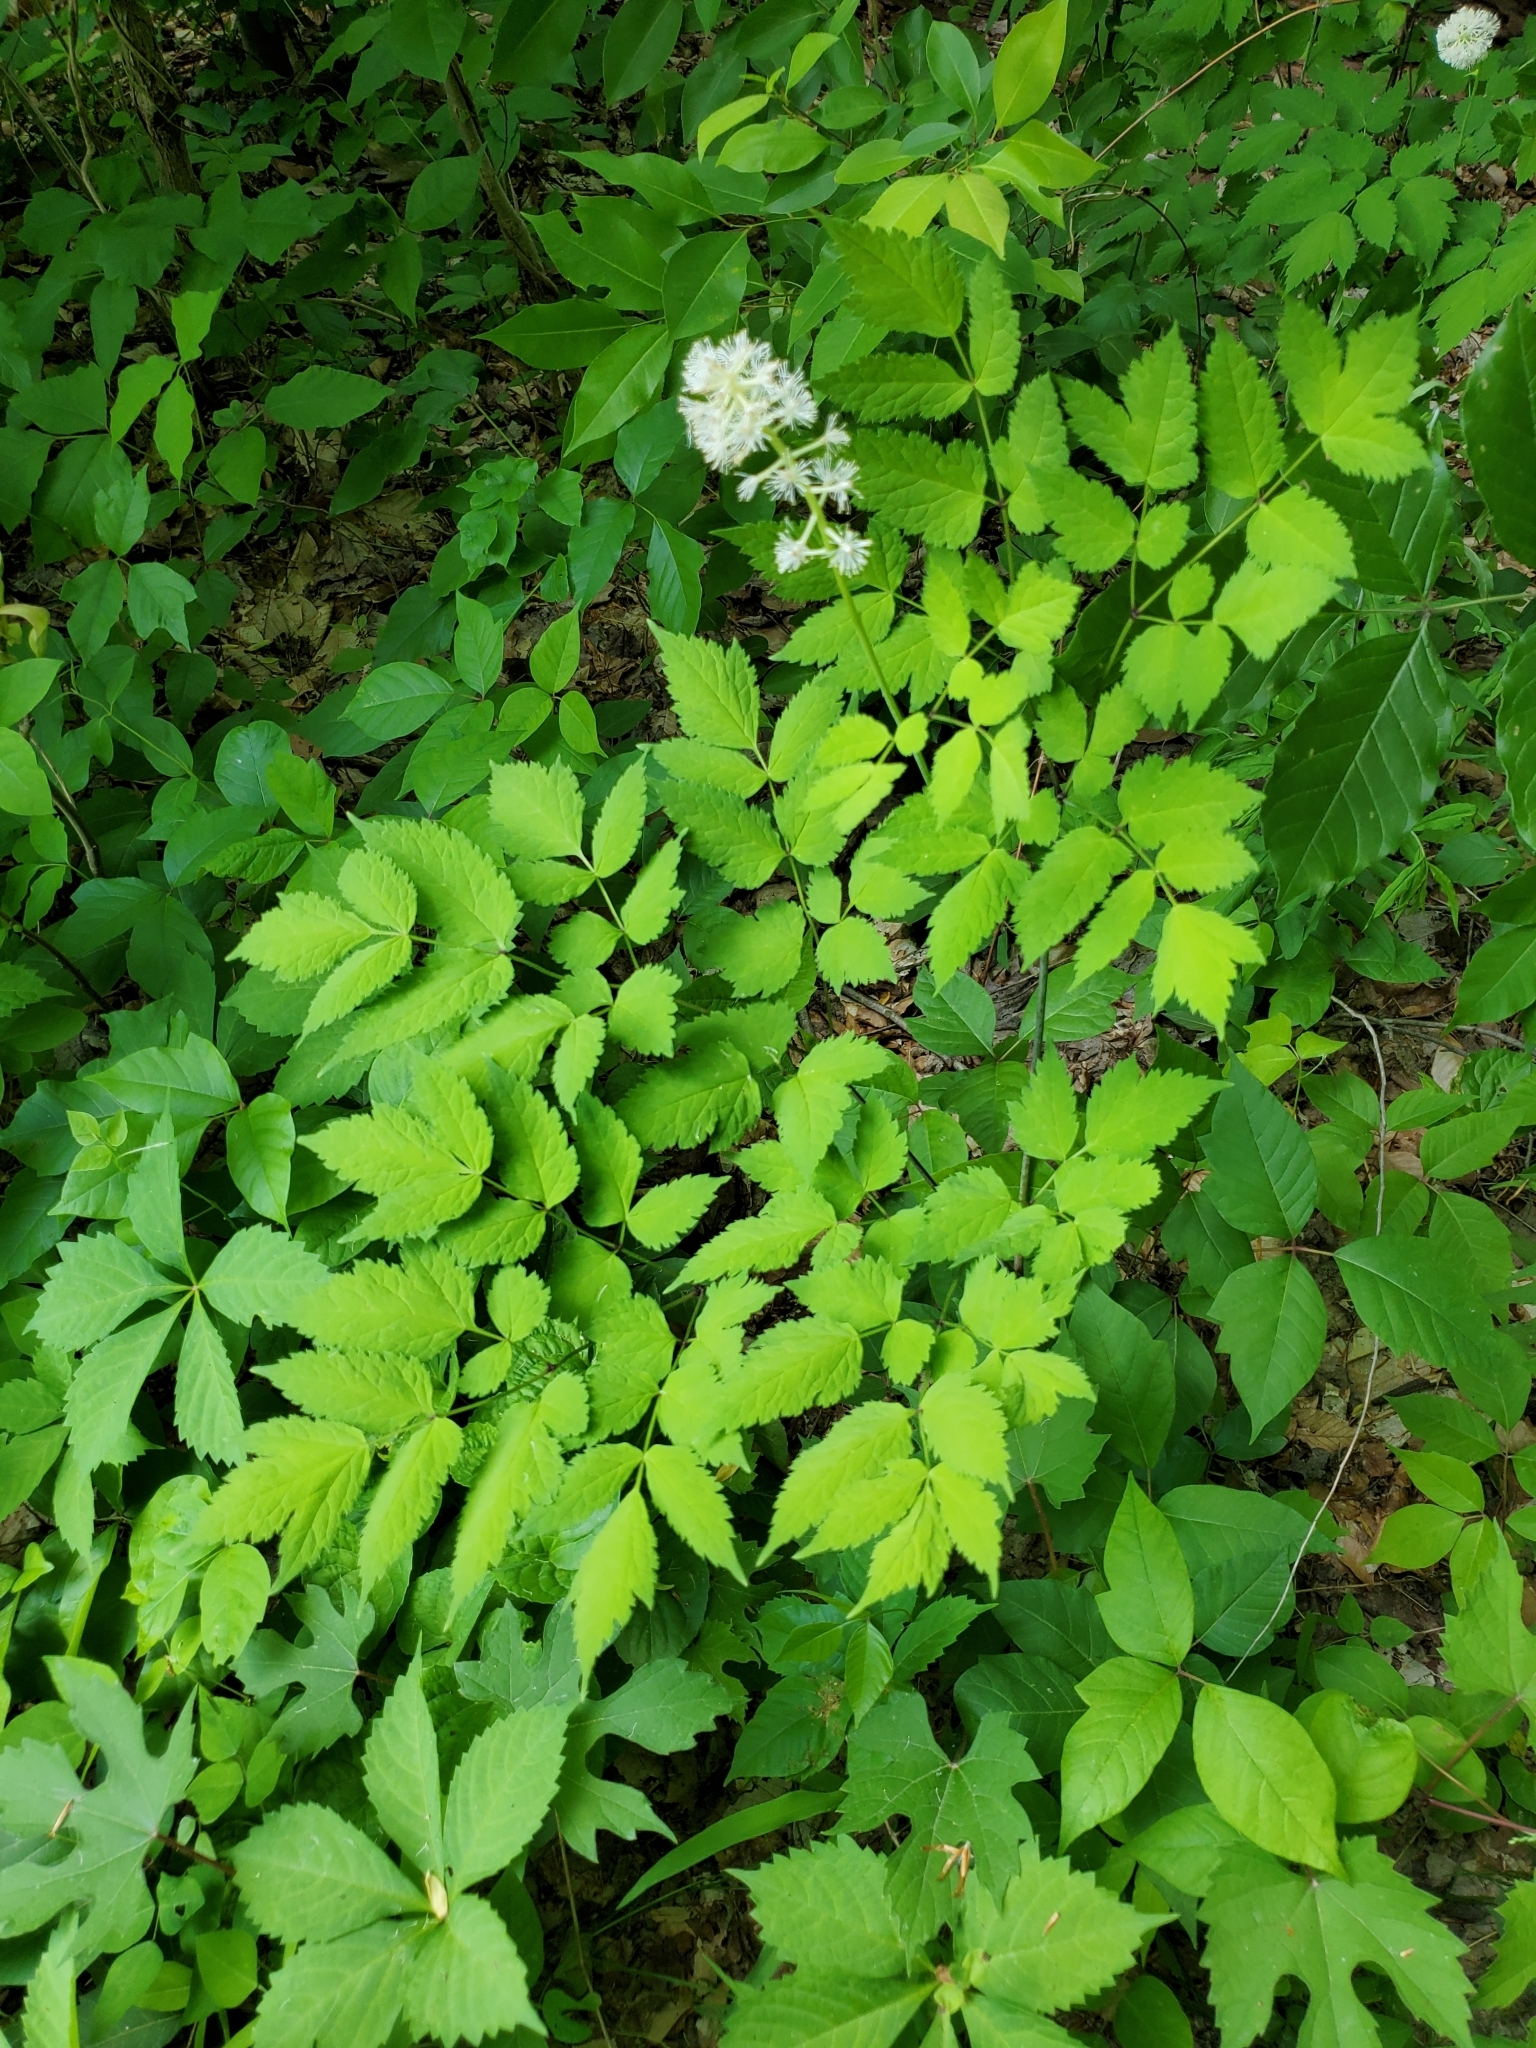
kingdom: Plantae
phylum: Tracheophyta
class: Magnoliopsida
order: Ranunculales
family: Ranunculaceae
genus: Actaea
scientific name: Actaea pachypoda
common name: Doll's-eyes
